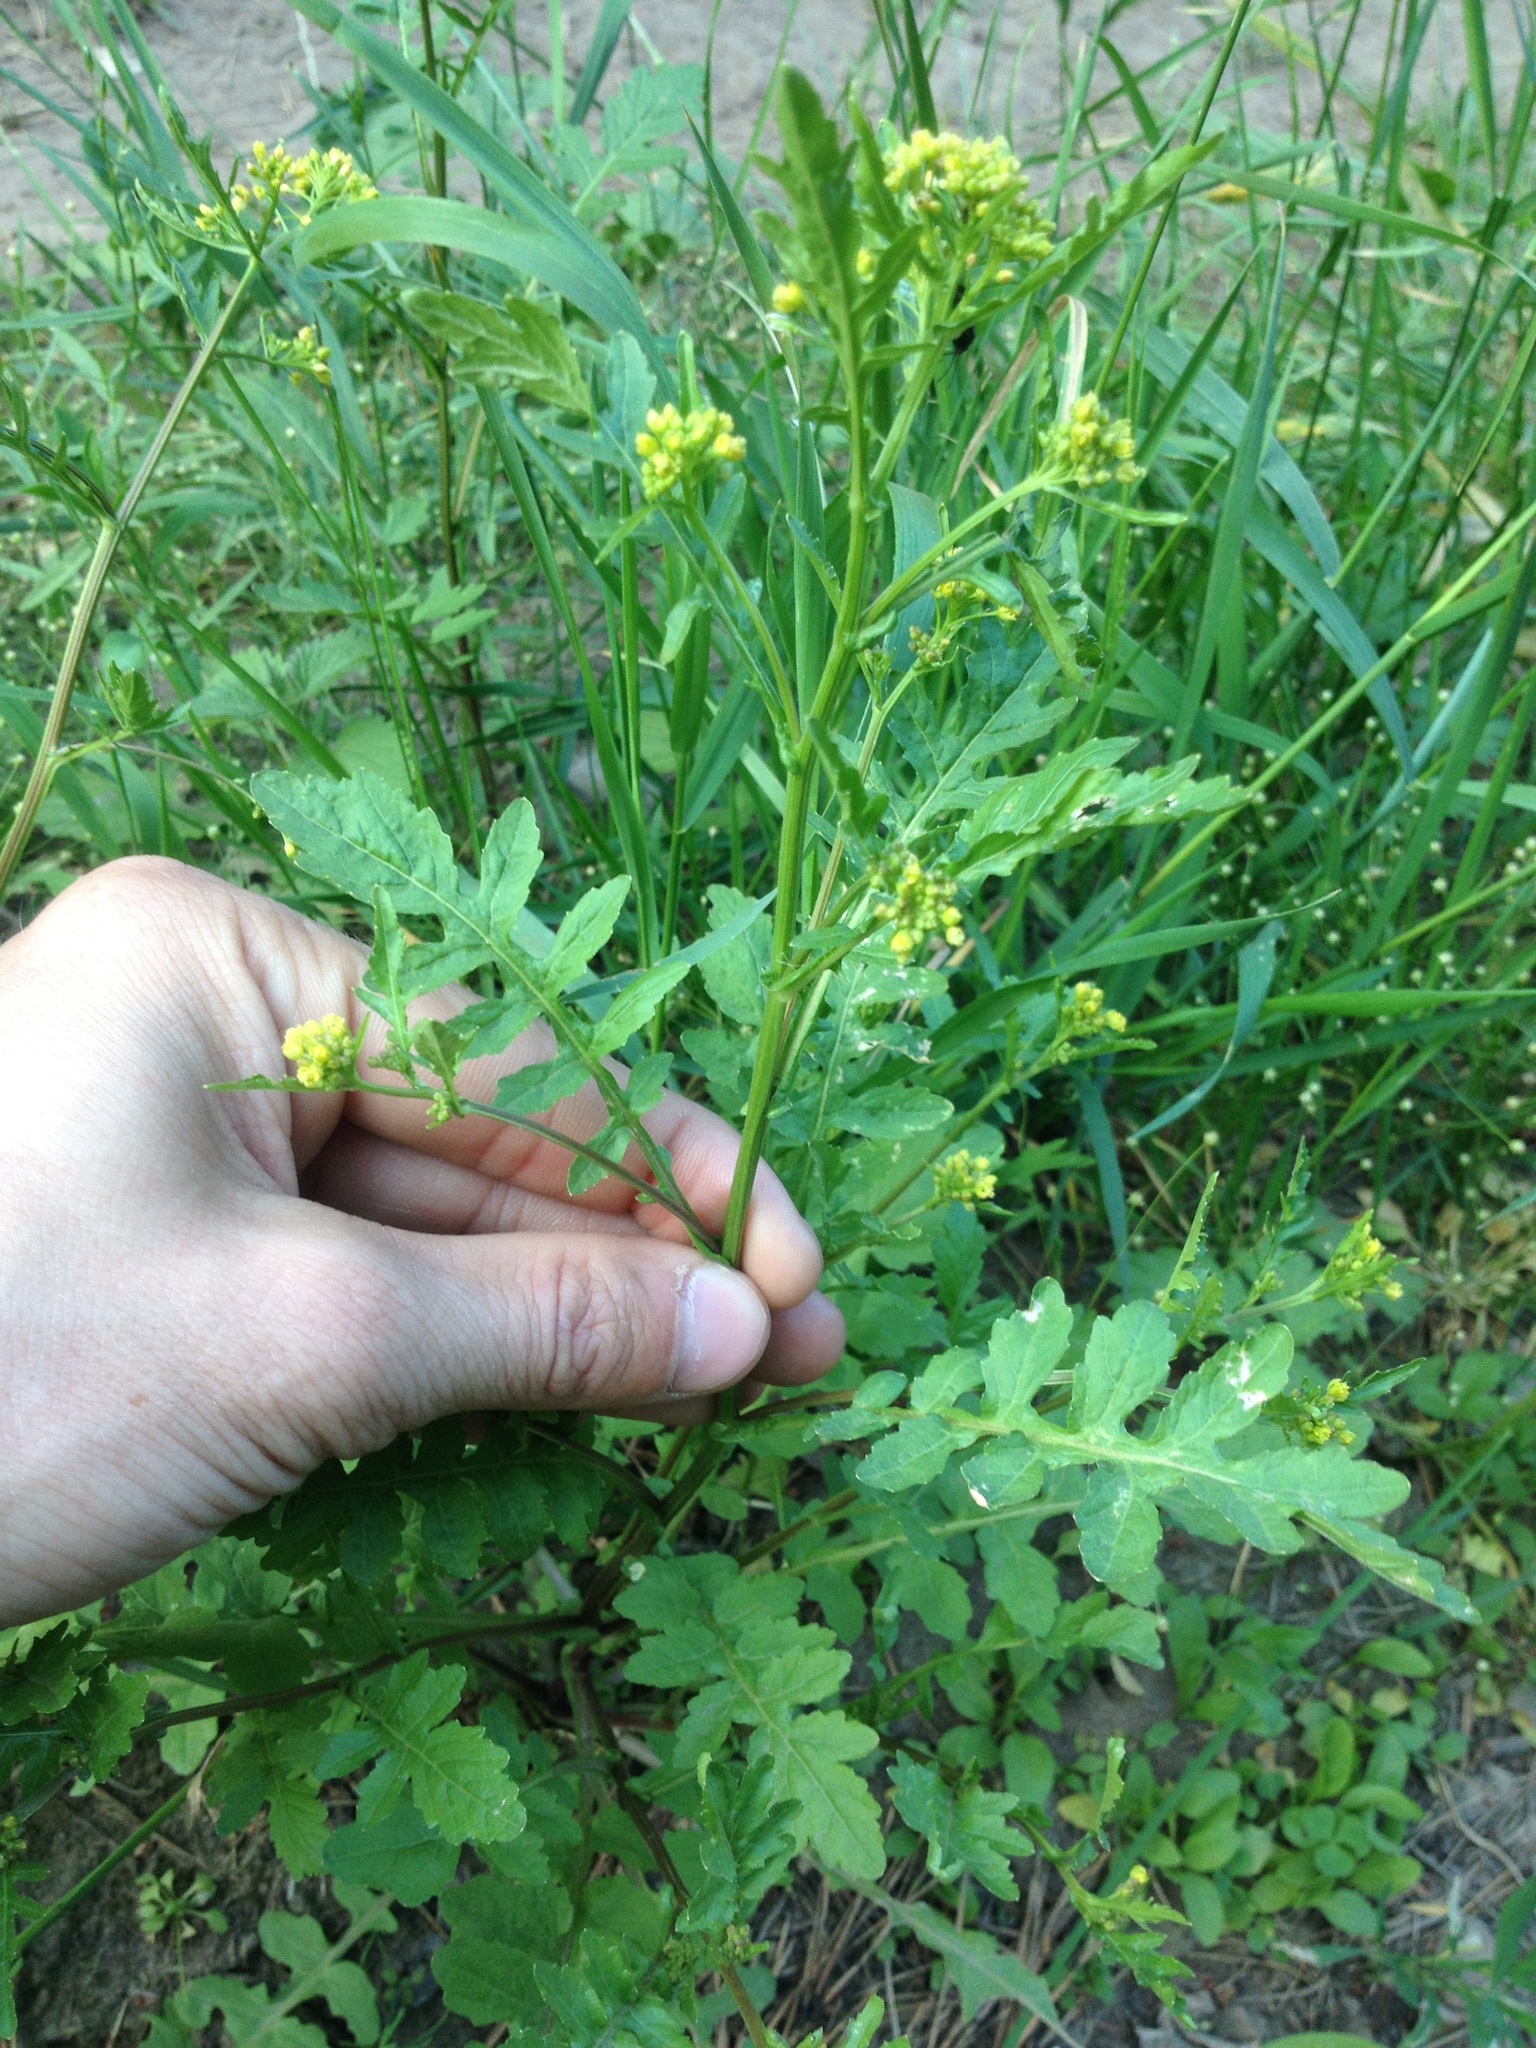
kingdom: Plantae
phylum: Tracheophyta
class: Magnoliopsida
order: Brassicales
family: Brassicaceae
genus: Rorippa
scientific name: Rorippa palustris
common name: Marsh yellow-cress
